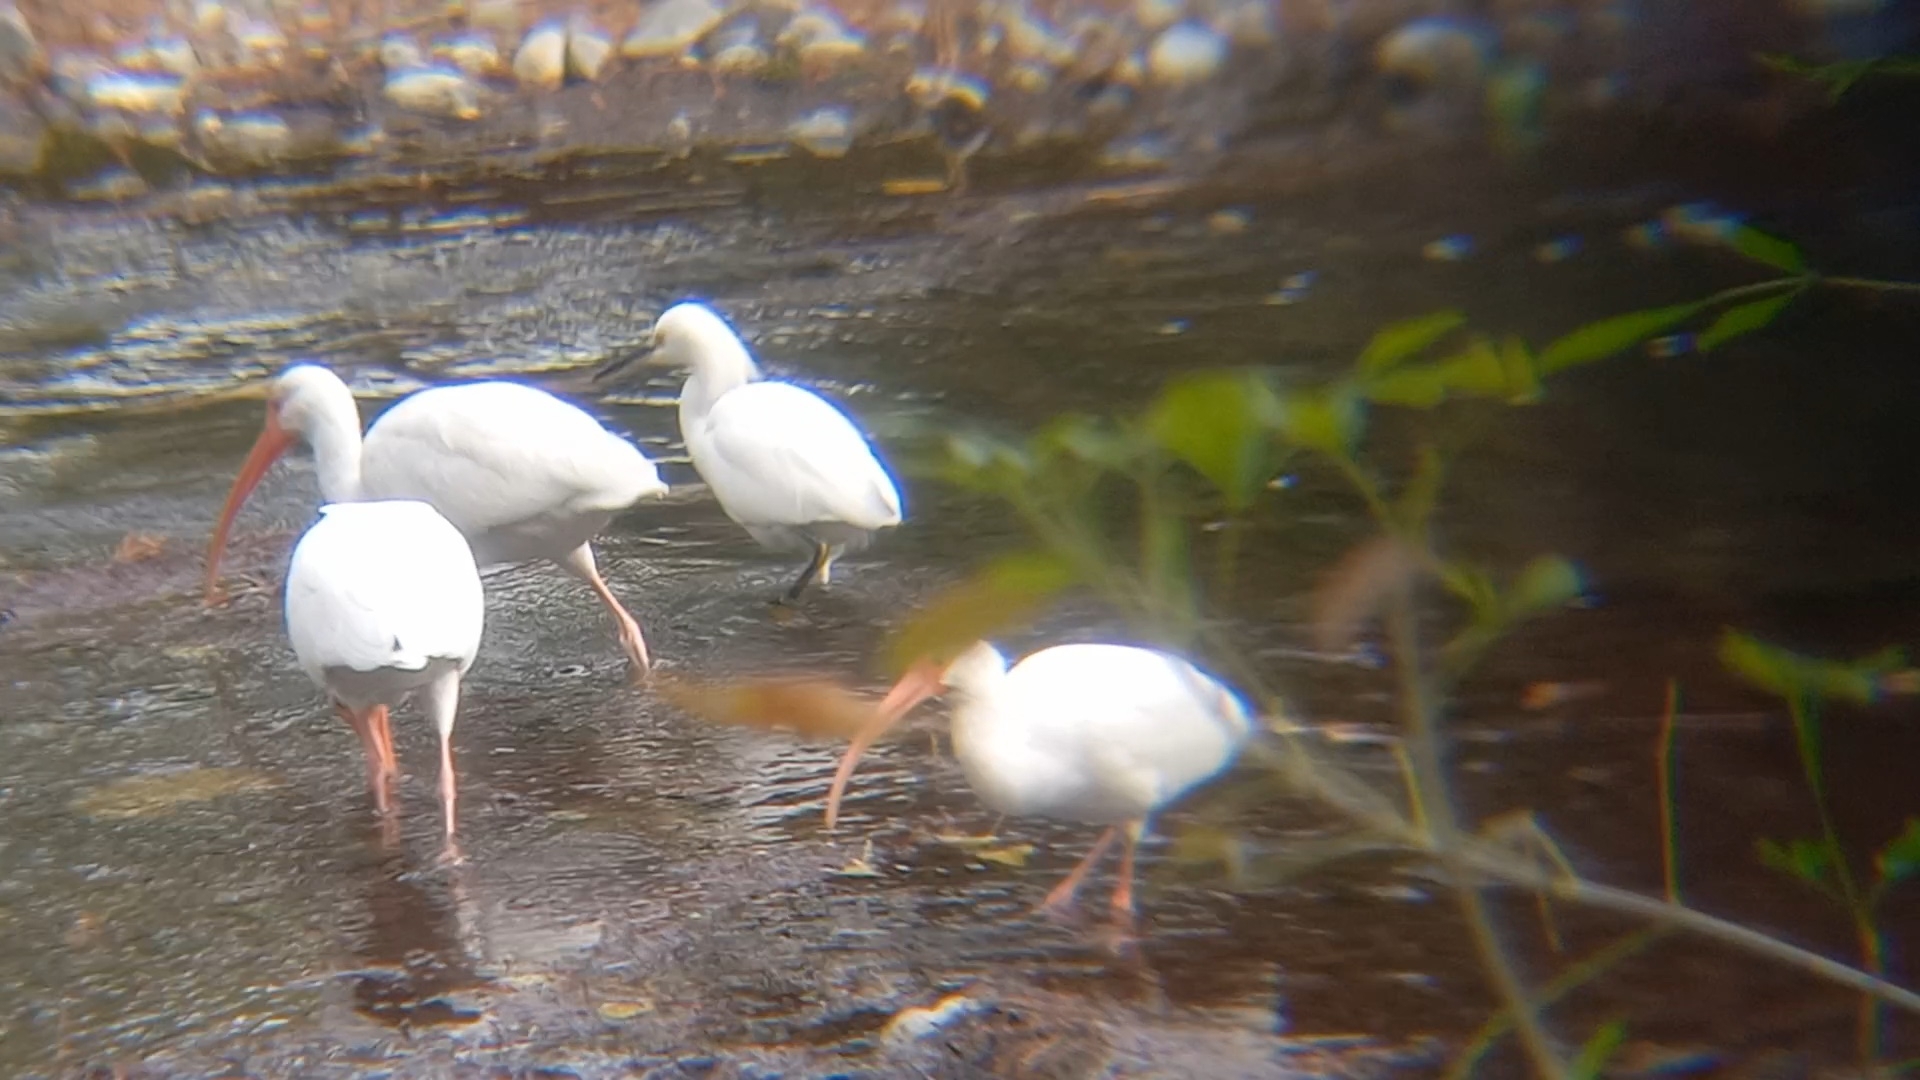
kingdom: Animalia
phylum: Chordata
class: Aves
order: Pelecaniformes
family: Threskiornithidae
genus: Eudocimus
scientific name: Eudocimus albus
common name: White ibis
